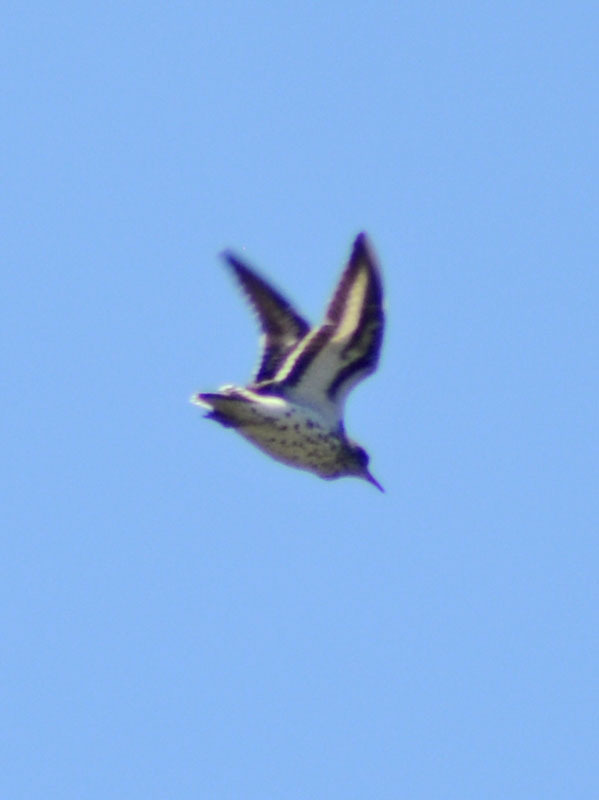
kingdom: Animalia
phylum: Chordata
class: Aves
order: Charadriiformes
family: Scolopacidae
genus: Actitis
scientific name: Actitis macularius
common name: Spotted sandpiper
